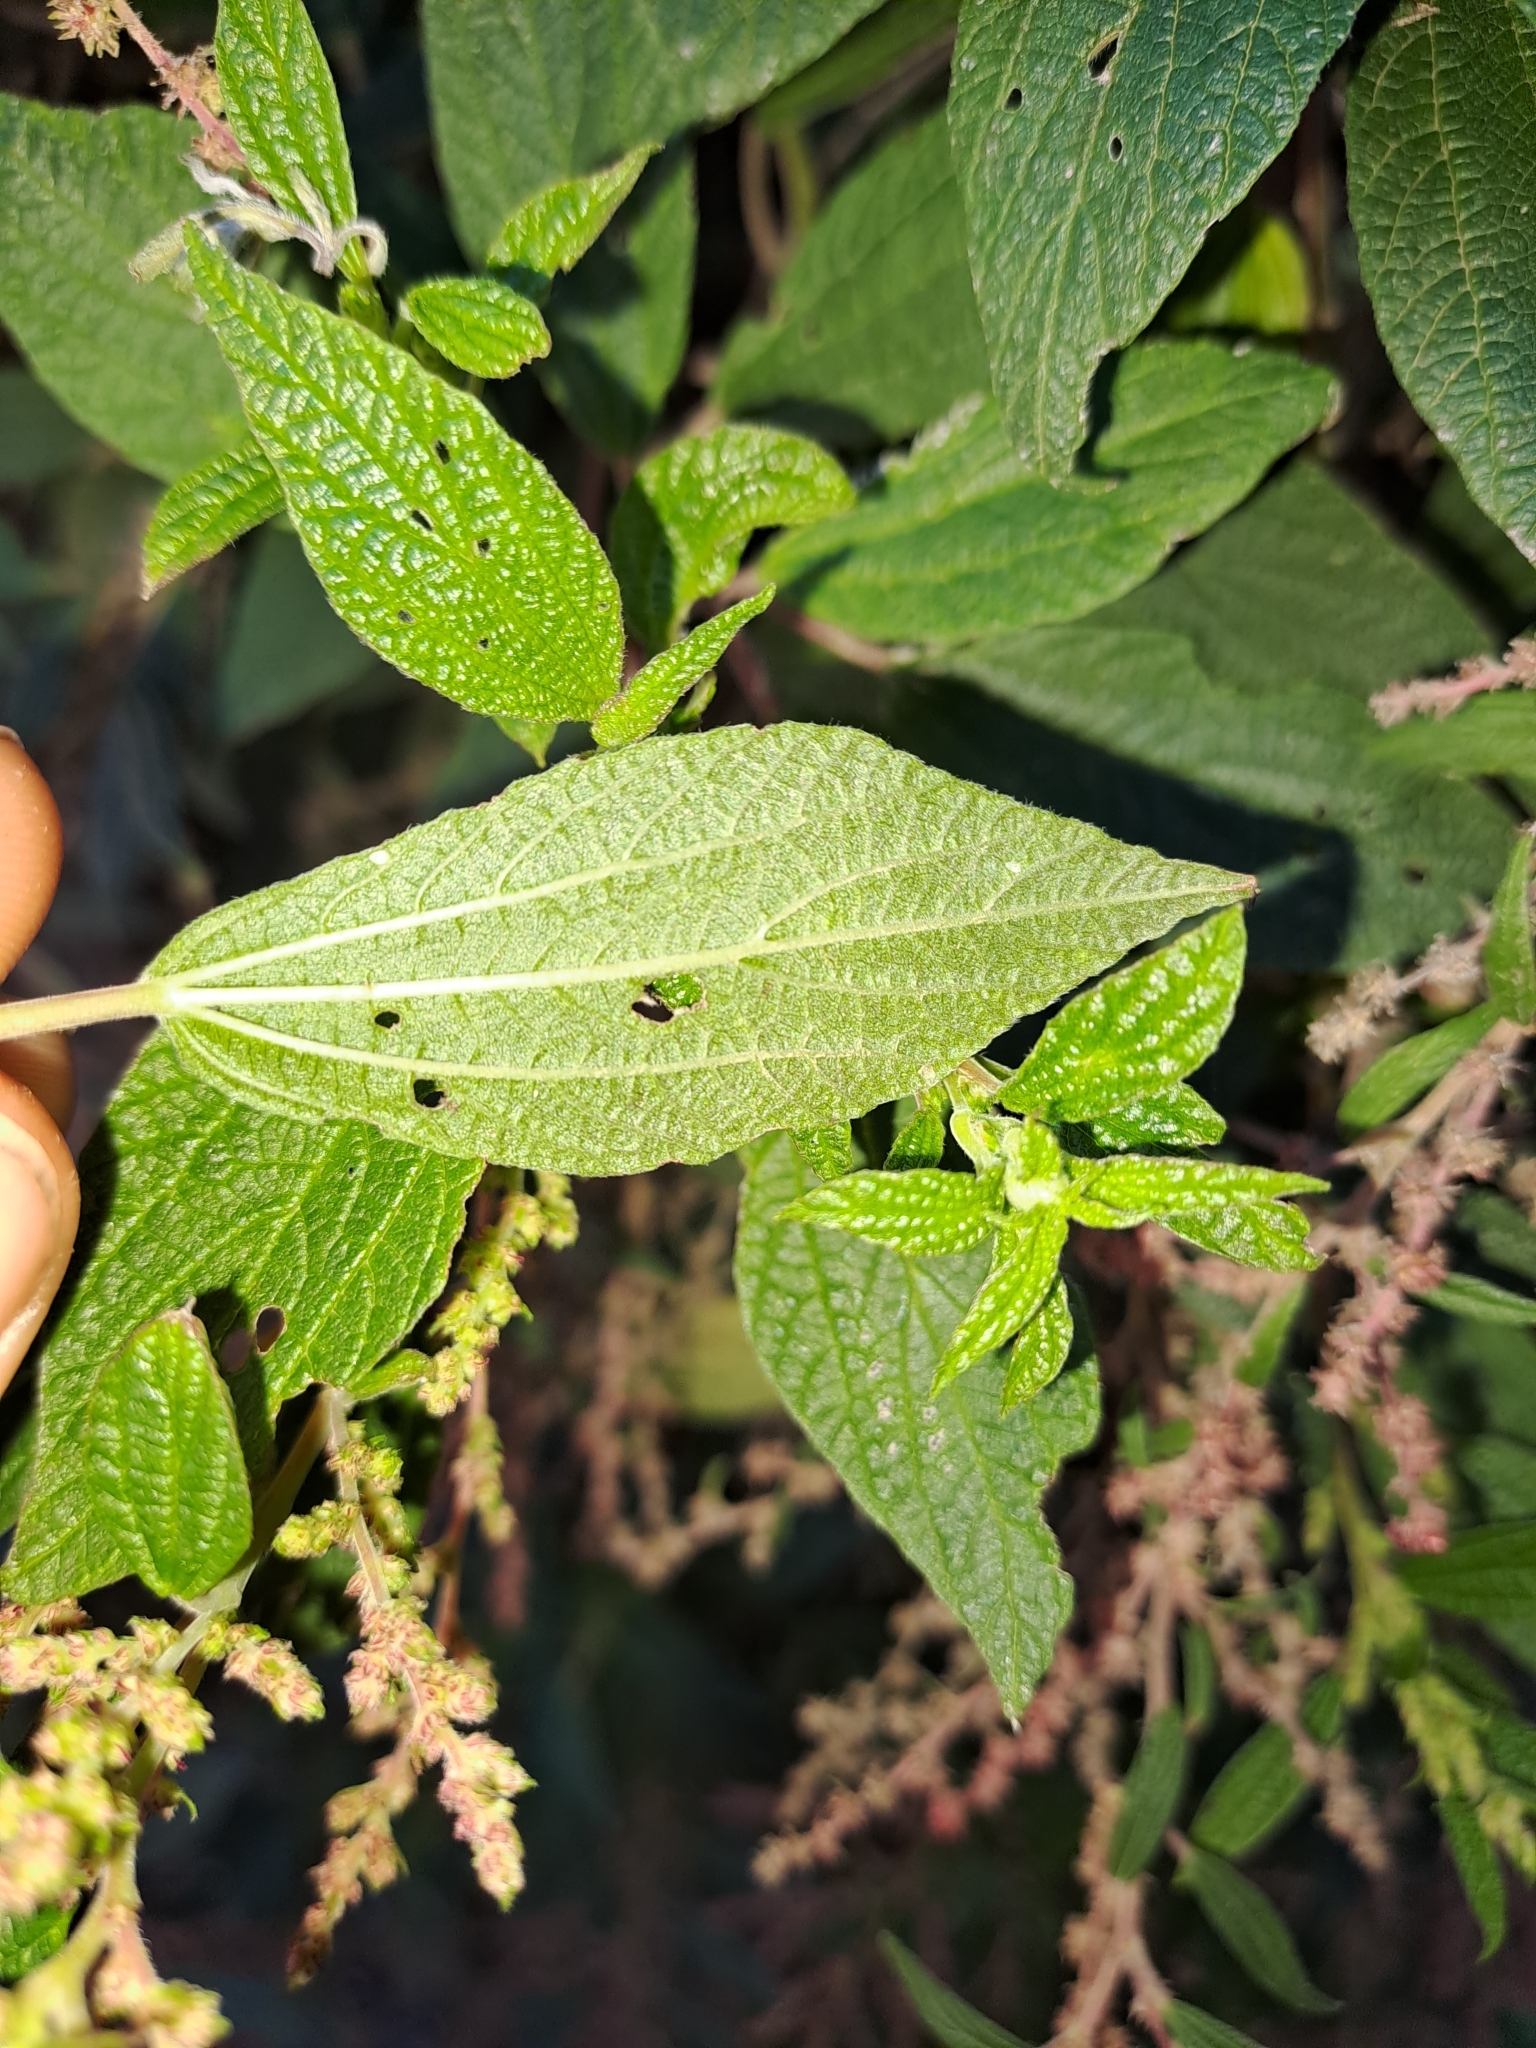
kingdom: Plantae
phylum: Tracheophyta
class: Magnoliopsida
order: Rosales
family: Urticaceae
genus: Gesnouinia
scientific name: Gesnouinia arborea
